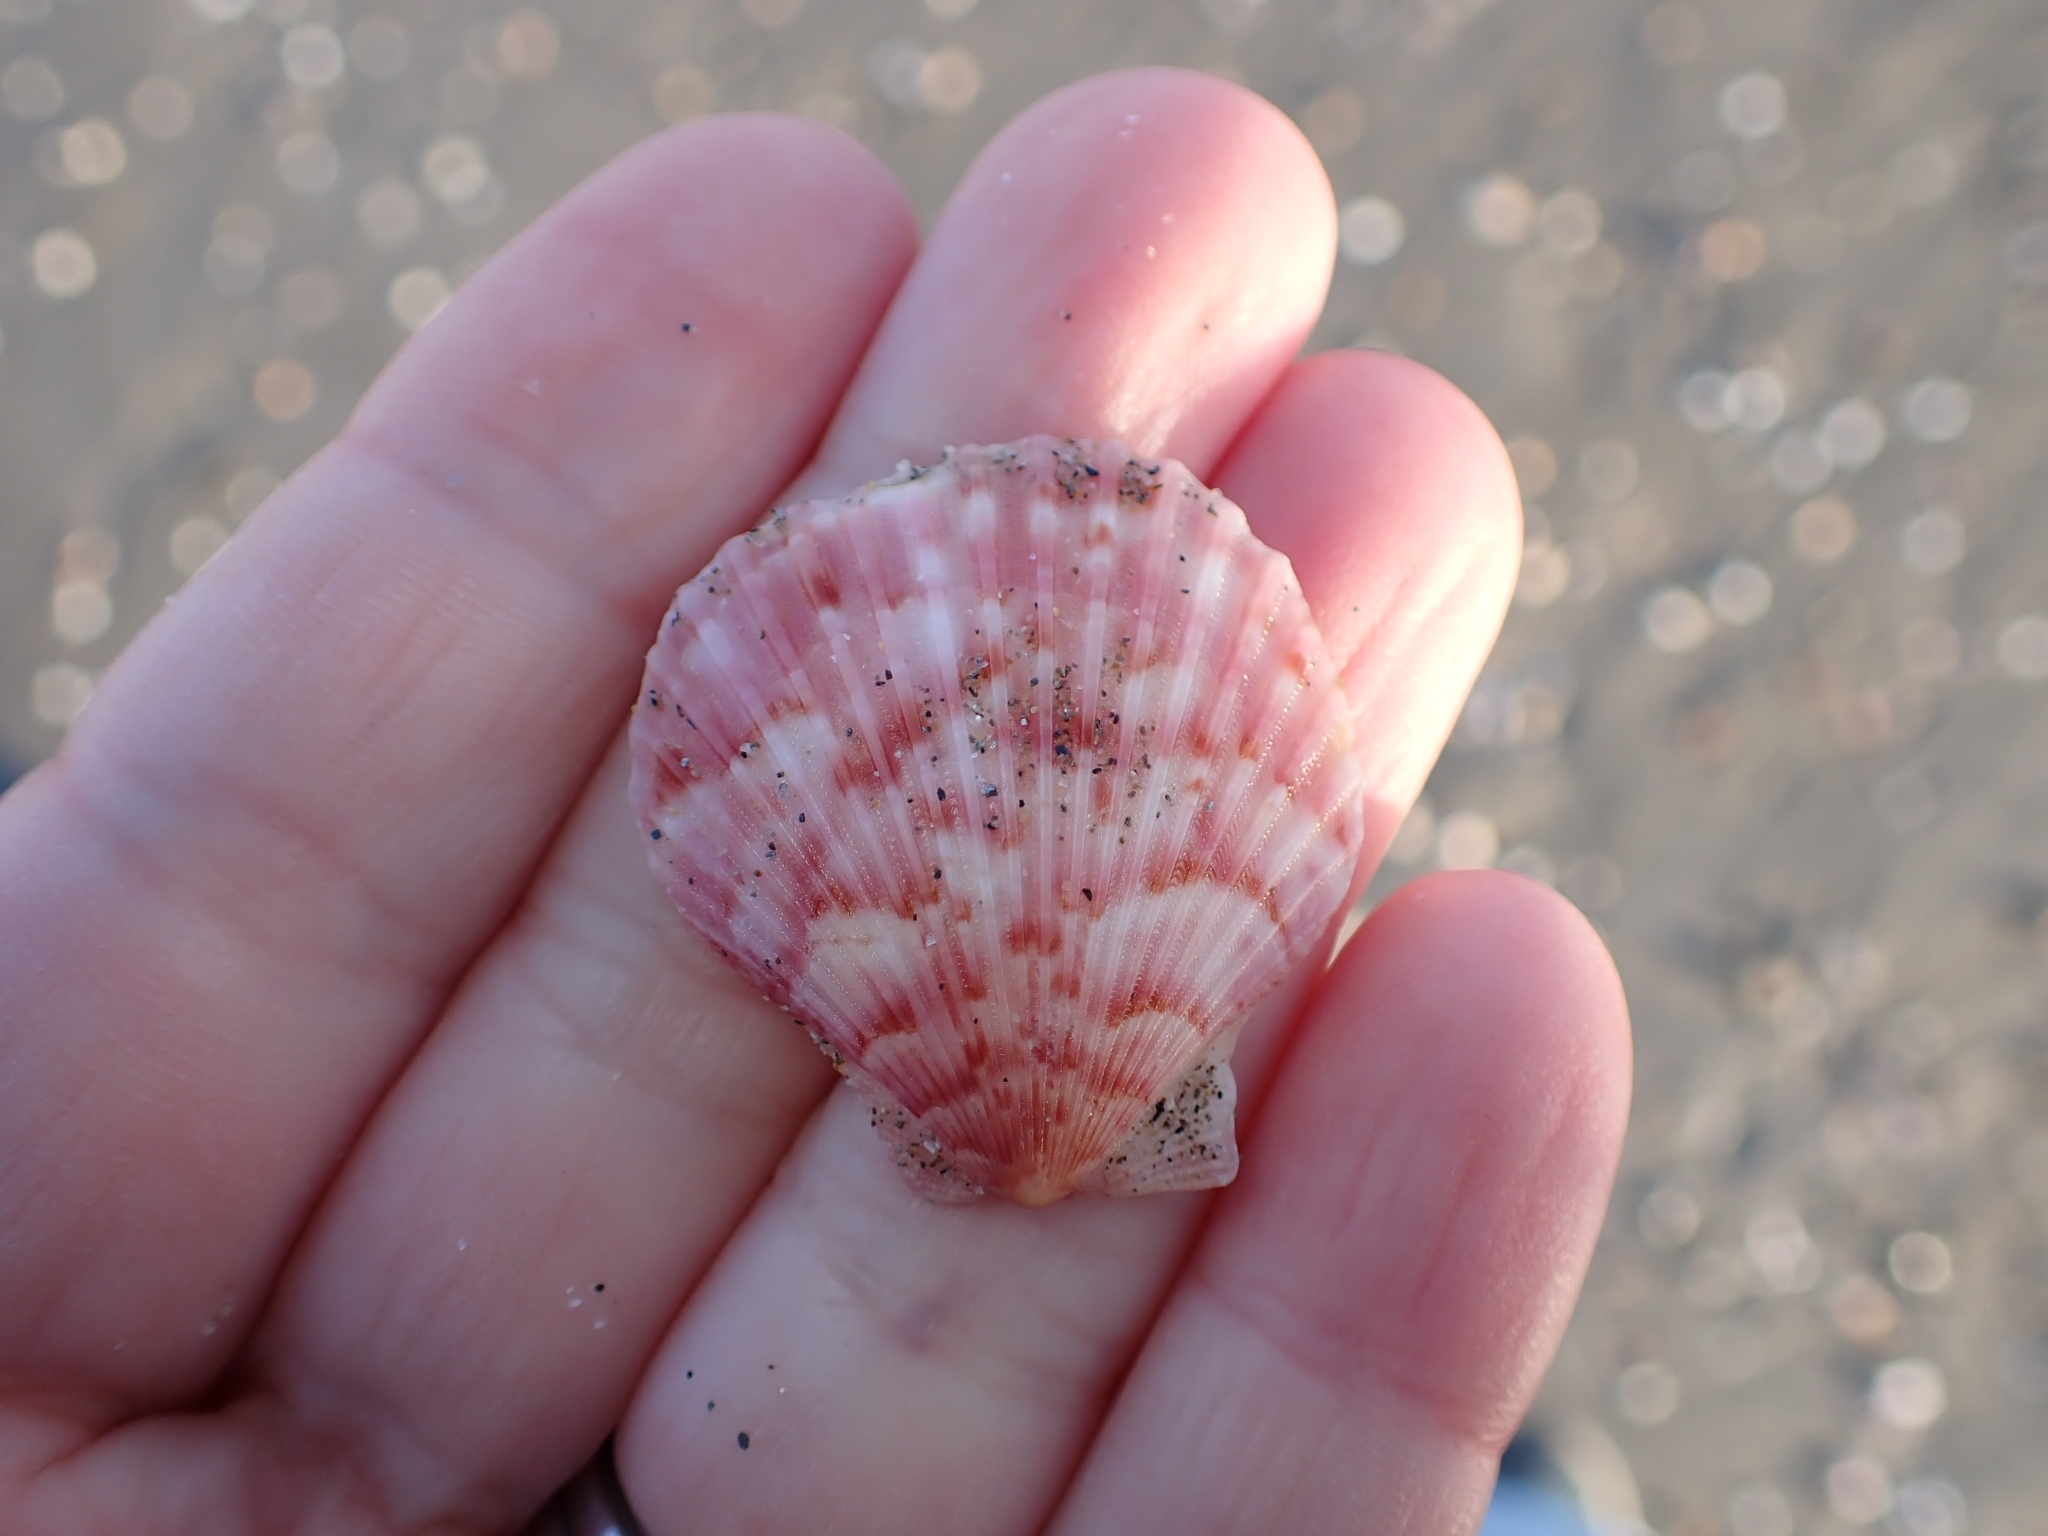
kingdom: Animalia
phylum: Mollusca
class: Bivalvia
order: Pectinida
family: Pectinidae
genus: Aequipecten
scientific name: Aequipecten opercularis
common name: Queen scallop
